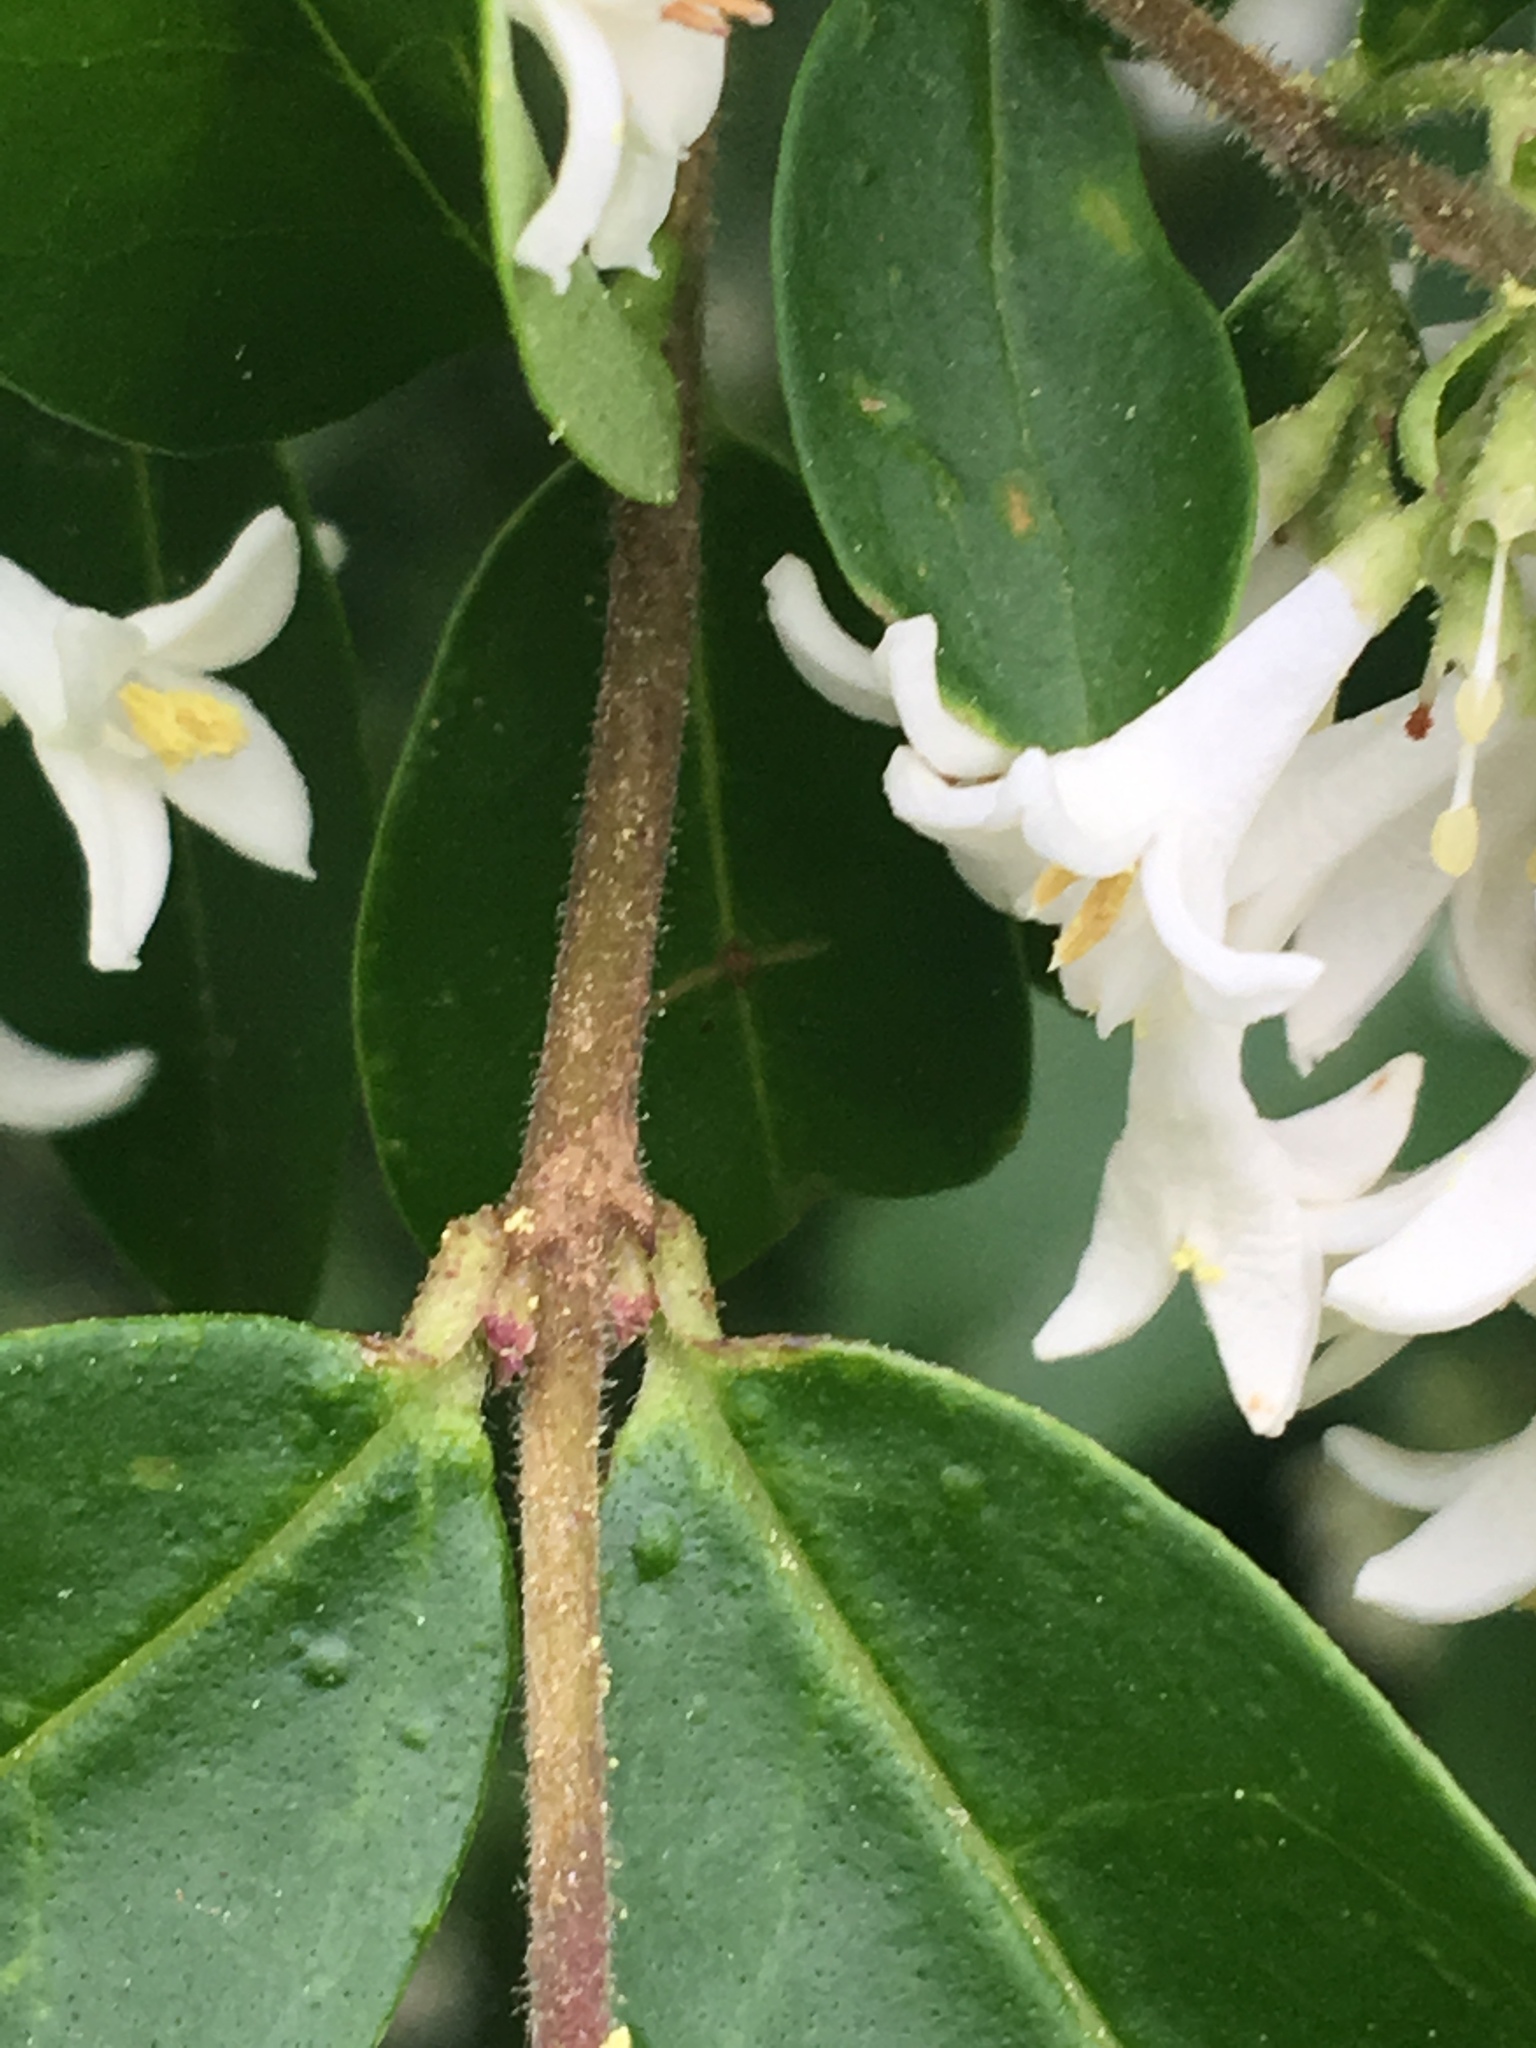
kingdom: Plantae
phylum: Tracheophyta
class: Magnoliopsida
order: Lamiales
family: Oleaceae
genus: Ligustrum
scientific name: Ligustrum obtusifolium
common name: Border privet
